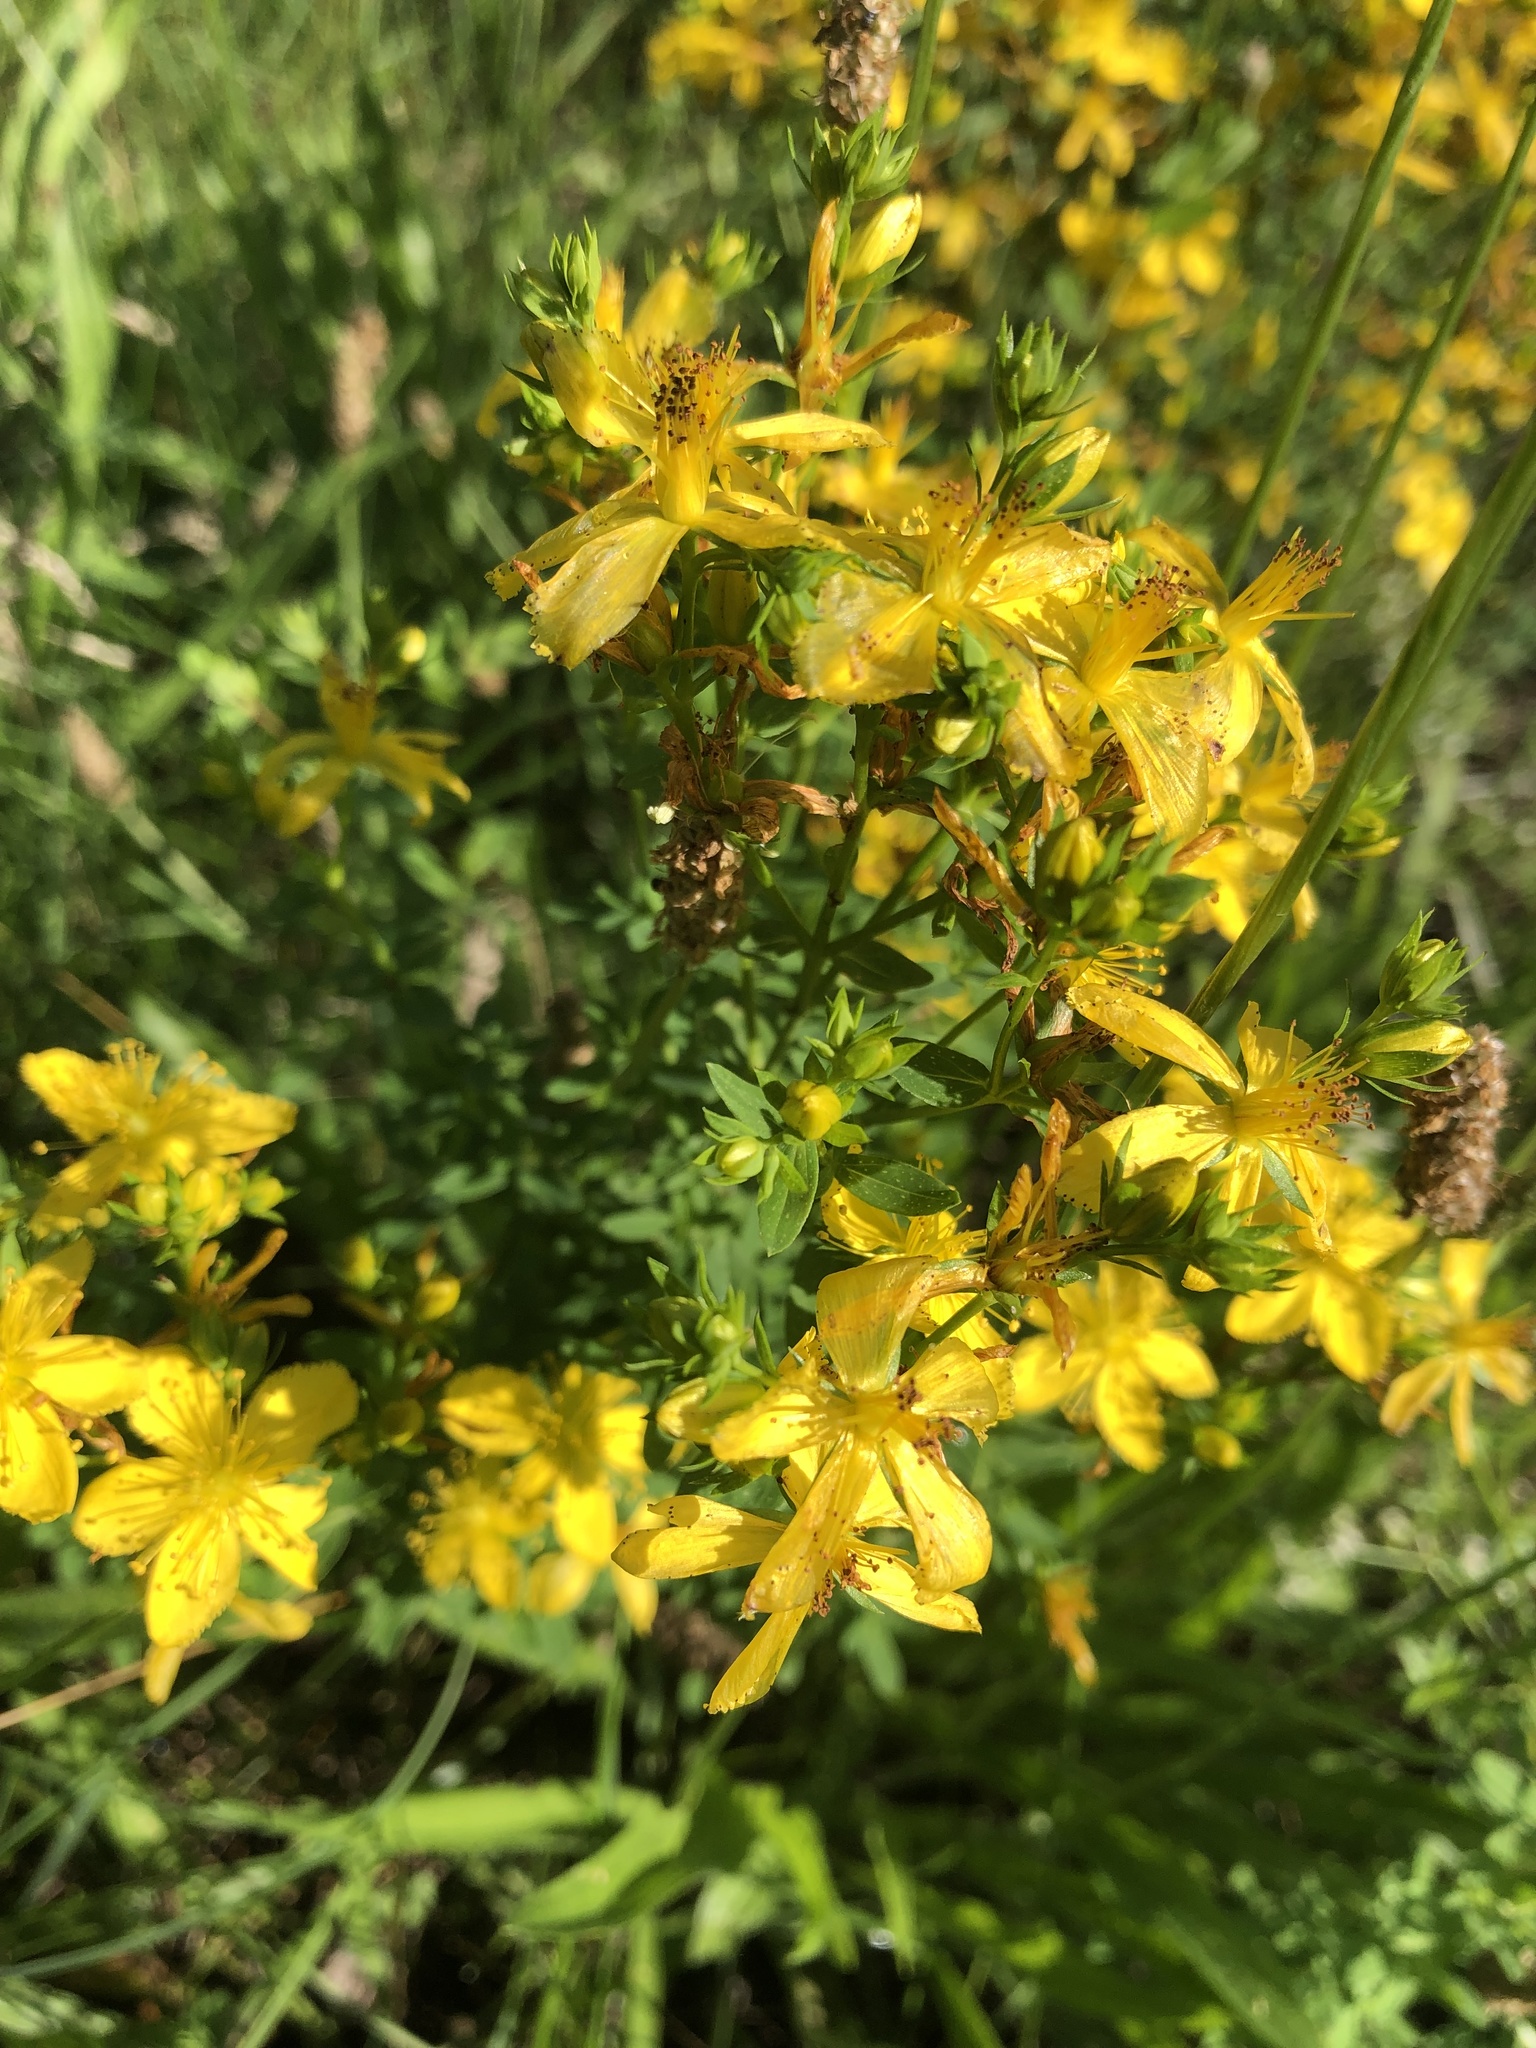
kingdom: Plantae
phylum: Tracheophyta
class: Magnoliopsida
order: Malpighiales
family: Hypericaceae
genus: Hypericum
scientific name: Hypericum perforatum
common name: Common st. johnswort
